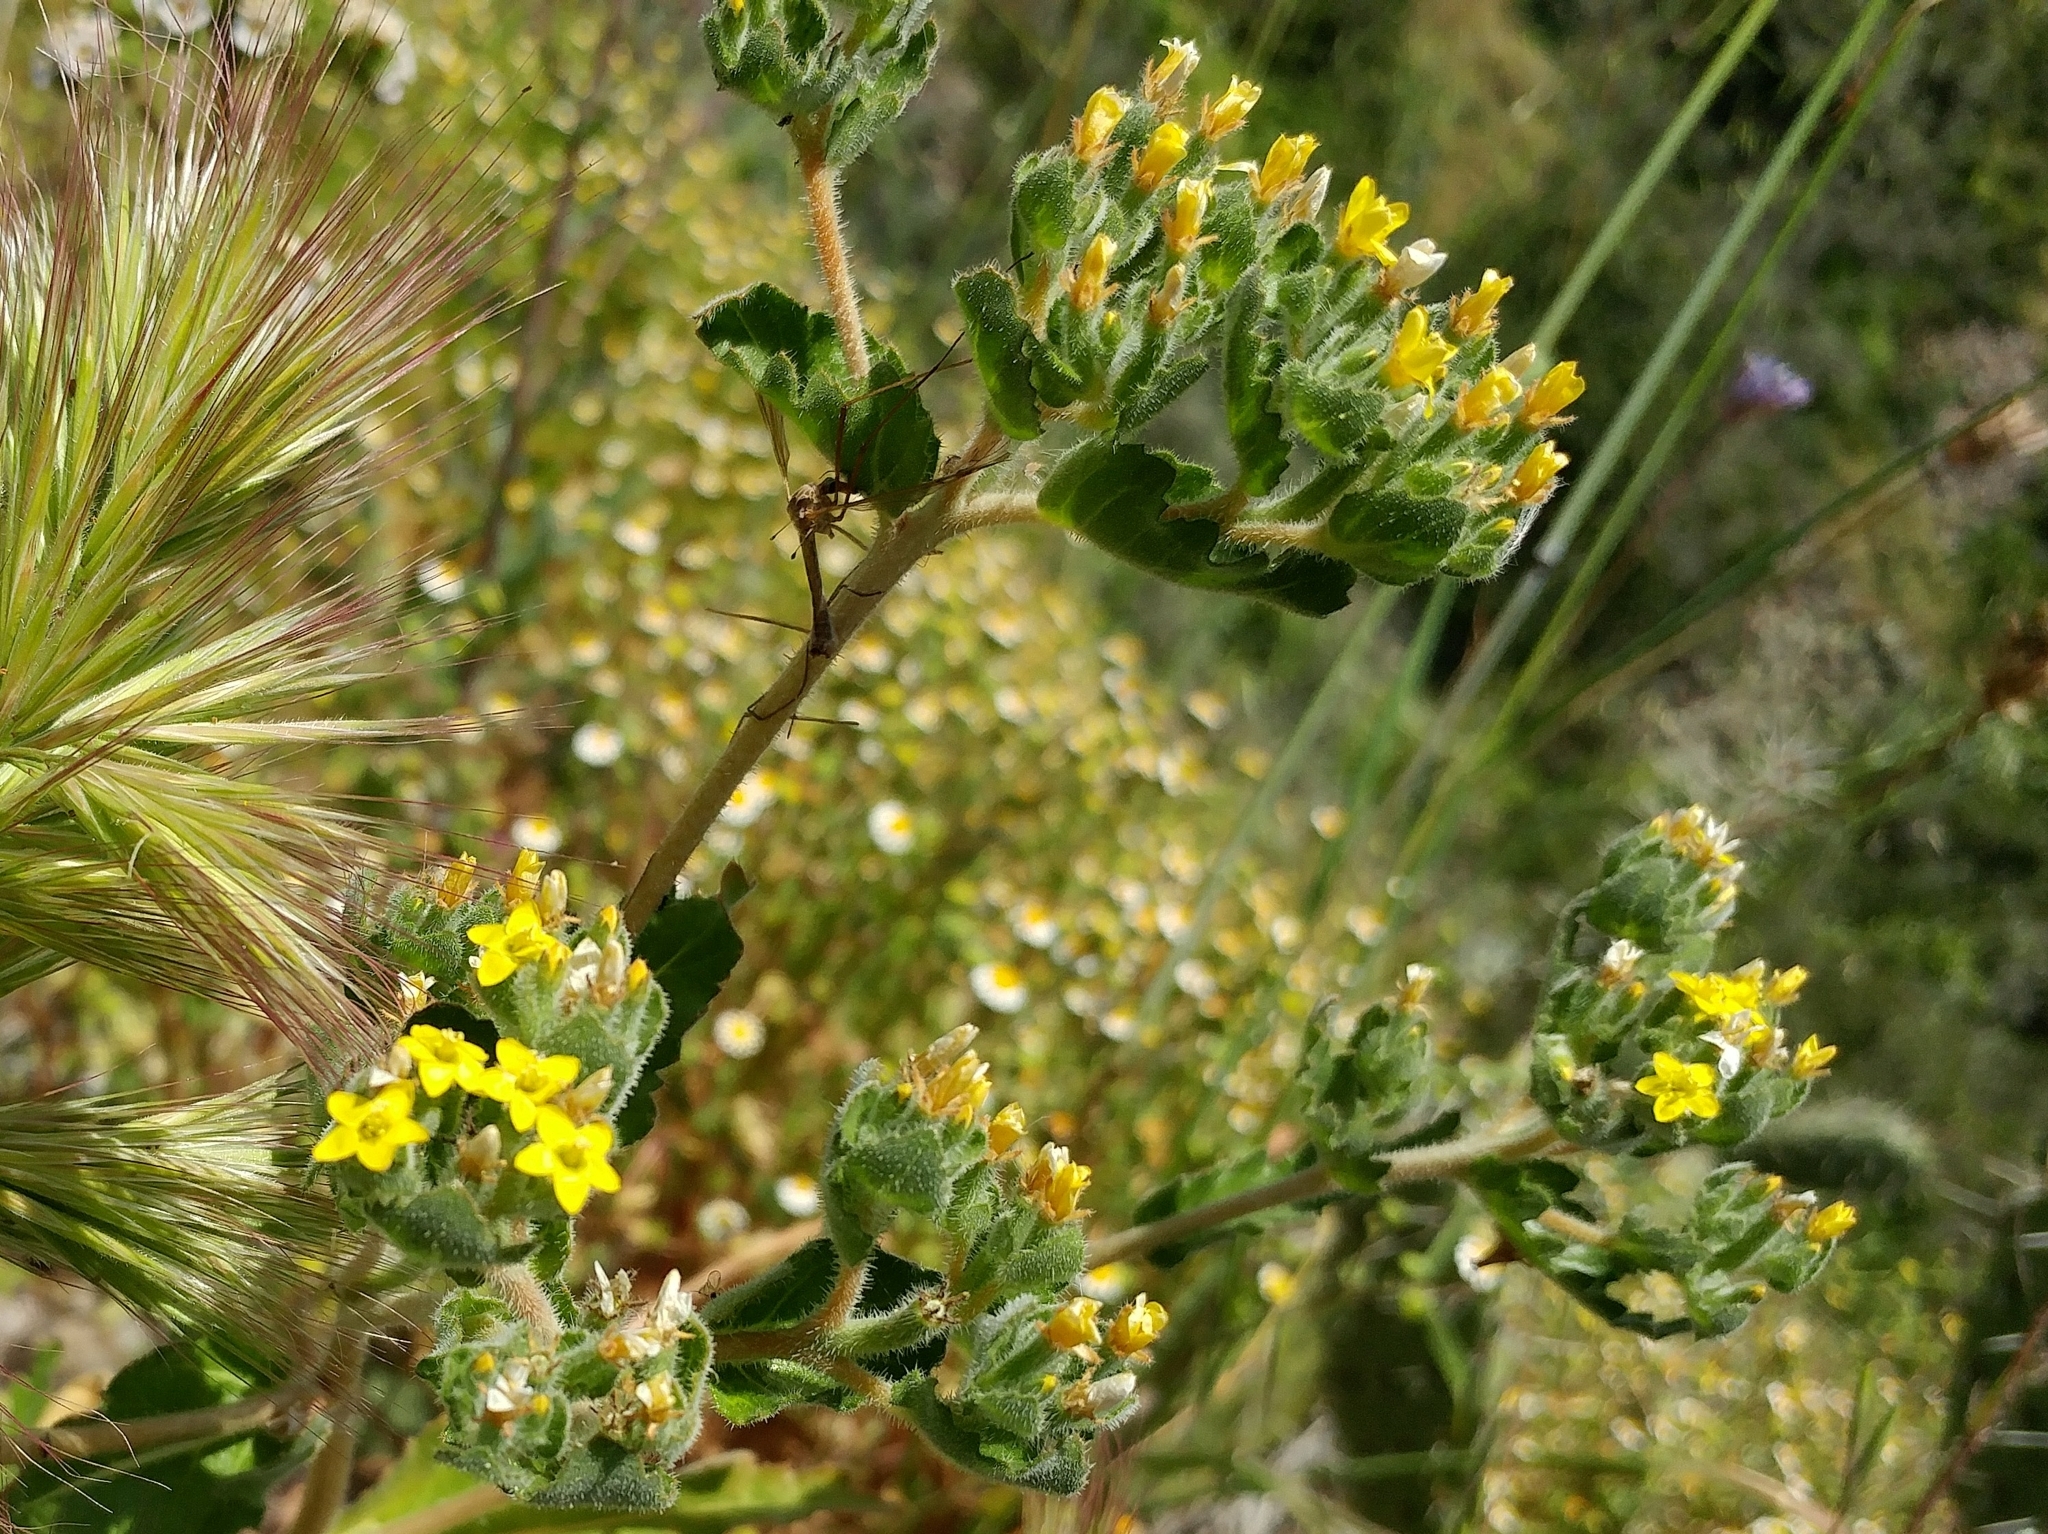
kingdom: Plantae
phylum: Tracheophyta
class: Magnoliopsida
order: Cornales
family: Loasaceae
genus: Mentzelia
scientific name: Mentzelia micrantha
